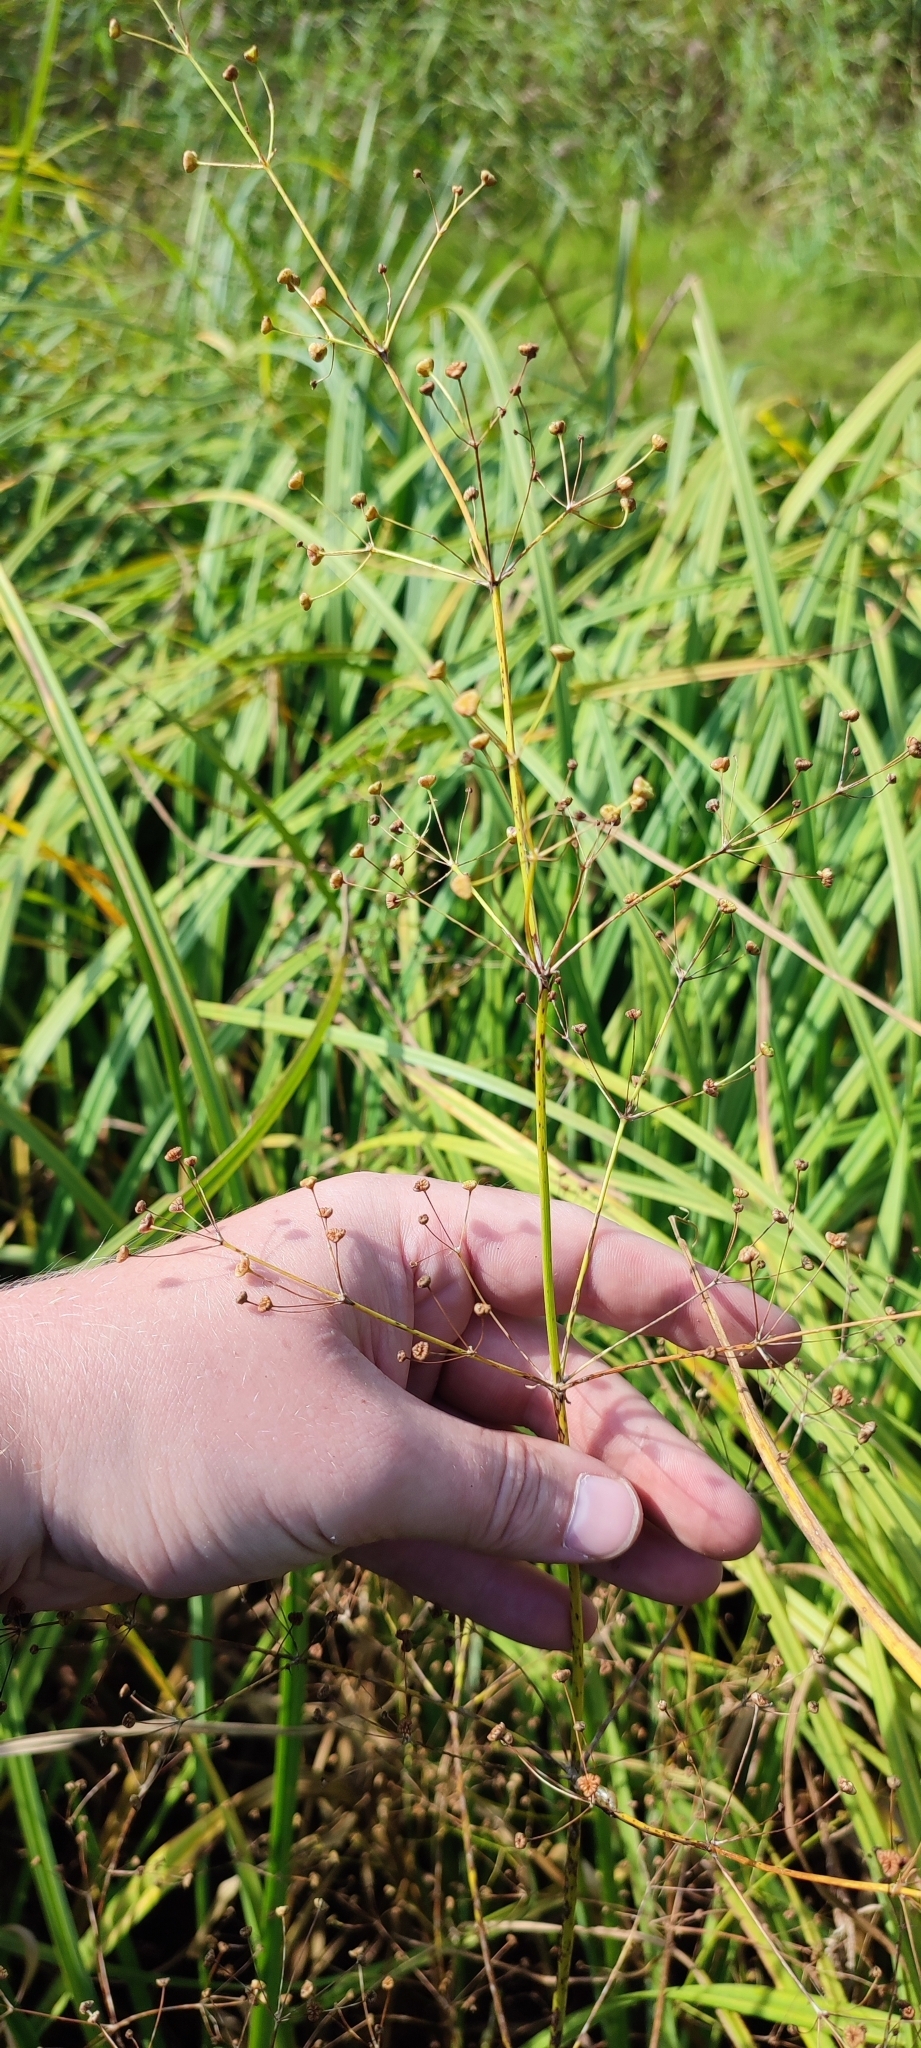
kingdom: Plantae
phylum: Tracheophyta
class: Liliopsida
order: Alismatales
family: Alismataceae
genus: Alisma
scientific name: Alisma plantago-aquatica
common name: Water-plantain
